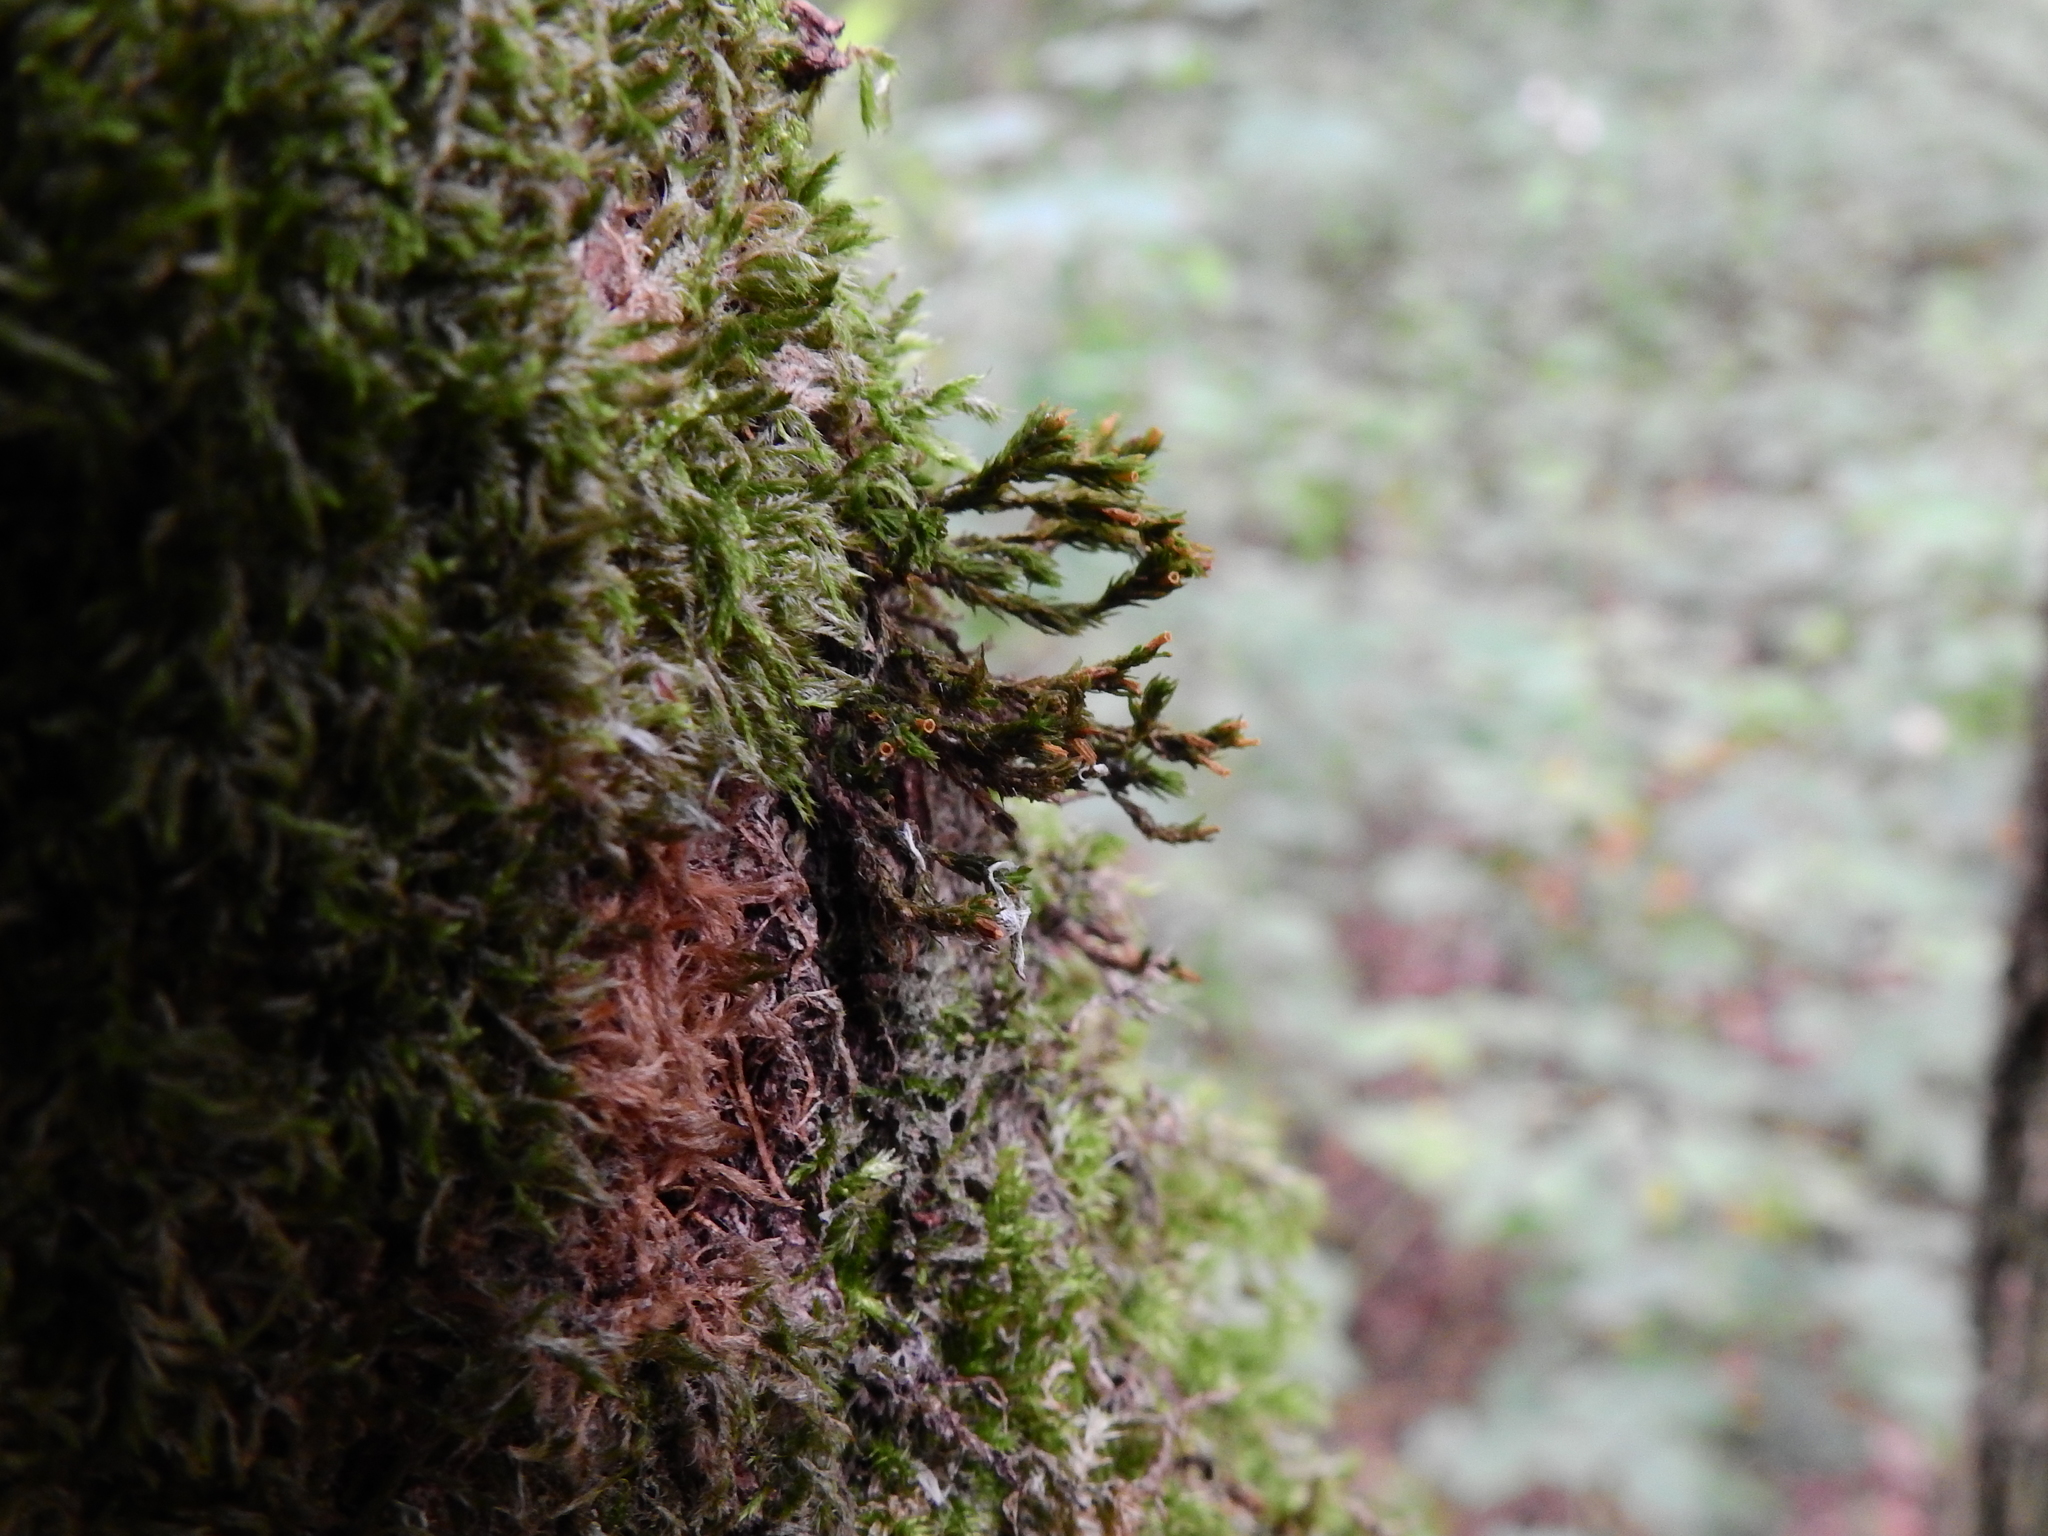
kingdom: Plantae
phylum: Bryophyta
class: Bryopsida
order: Orthotrichales
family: Orthotrichaceae
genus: Lewinskya
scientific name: Lewinskya affinis
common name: Wood bristle-moss
